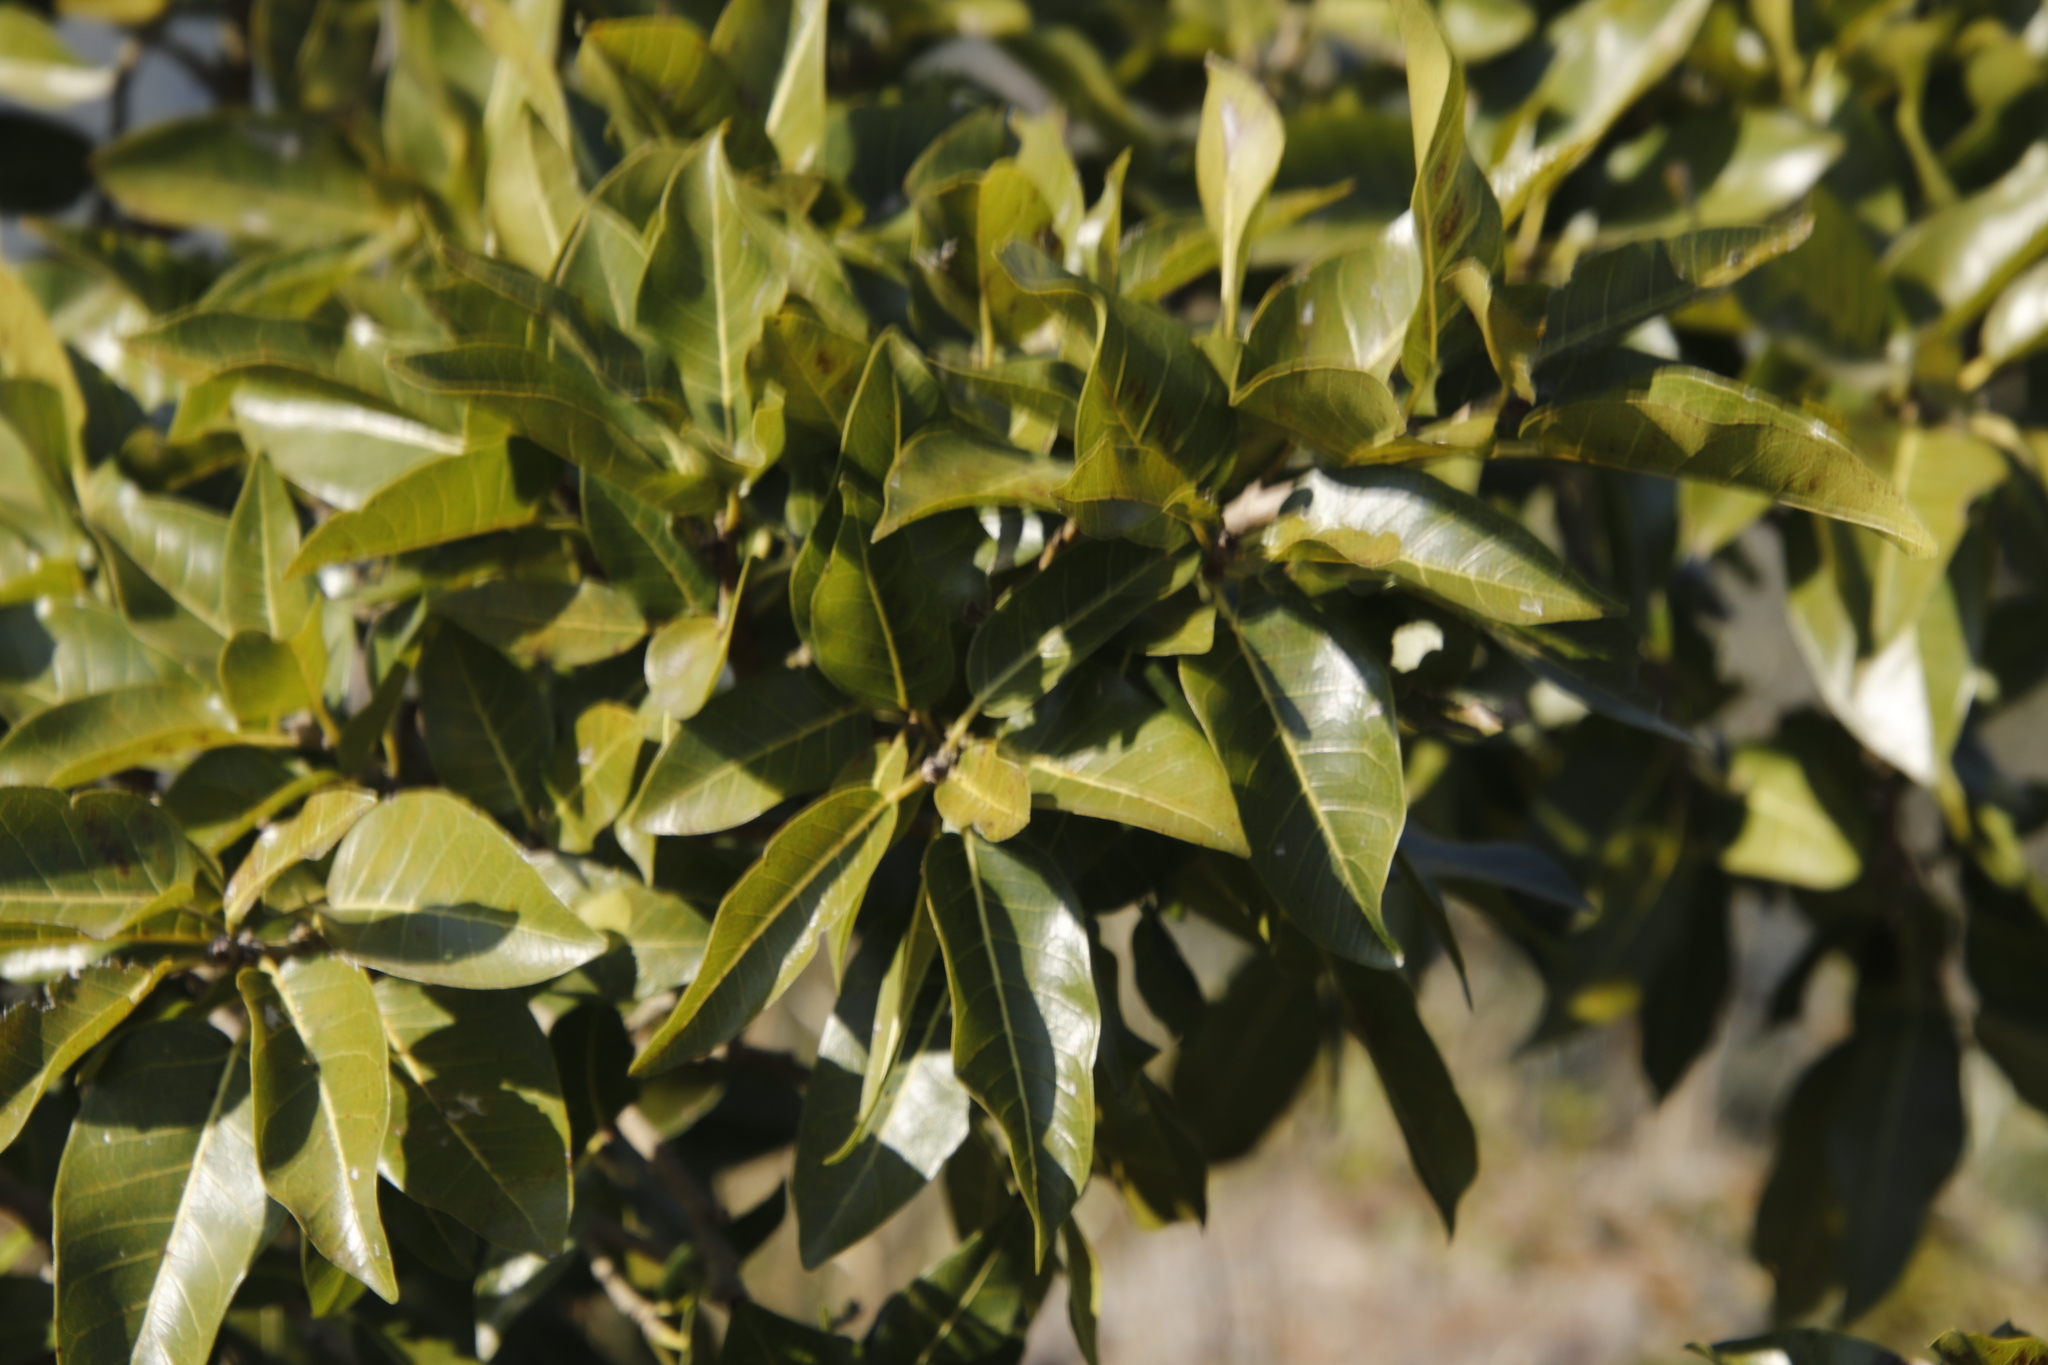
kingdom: Plantae
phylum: Tracheophyta
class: Magnoliopsida
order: Rosales
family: Moraceae
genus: Ficus
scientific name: Ficus ingens
